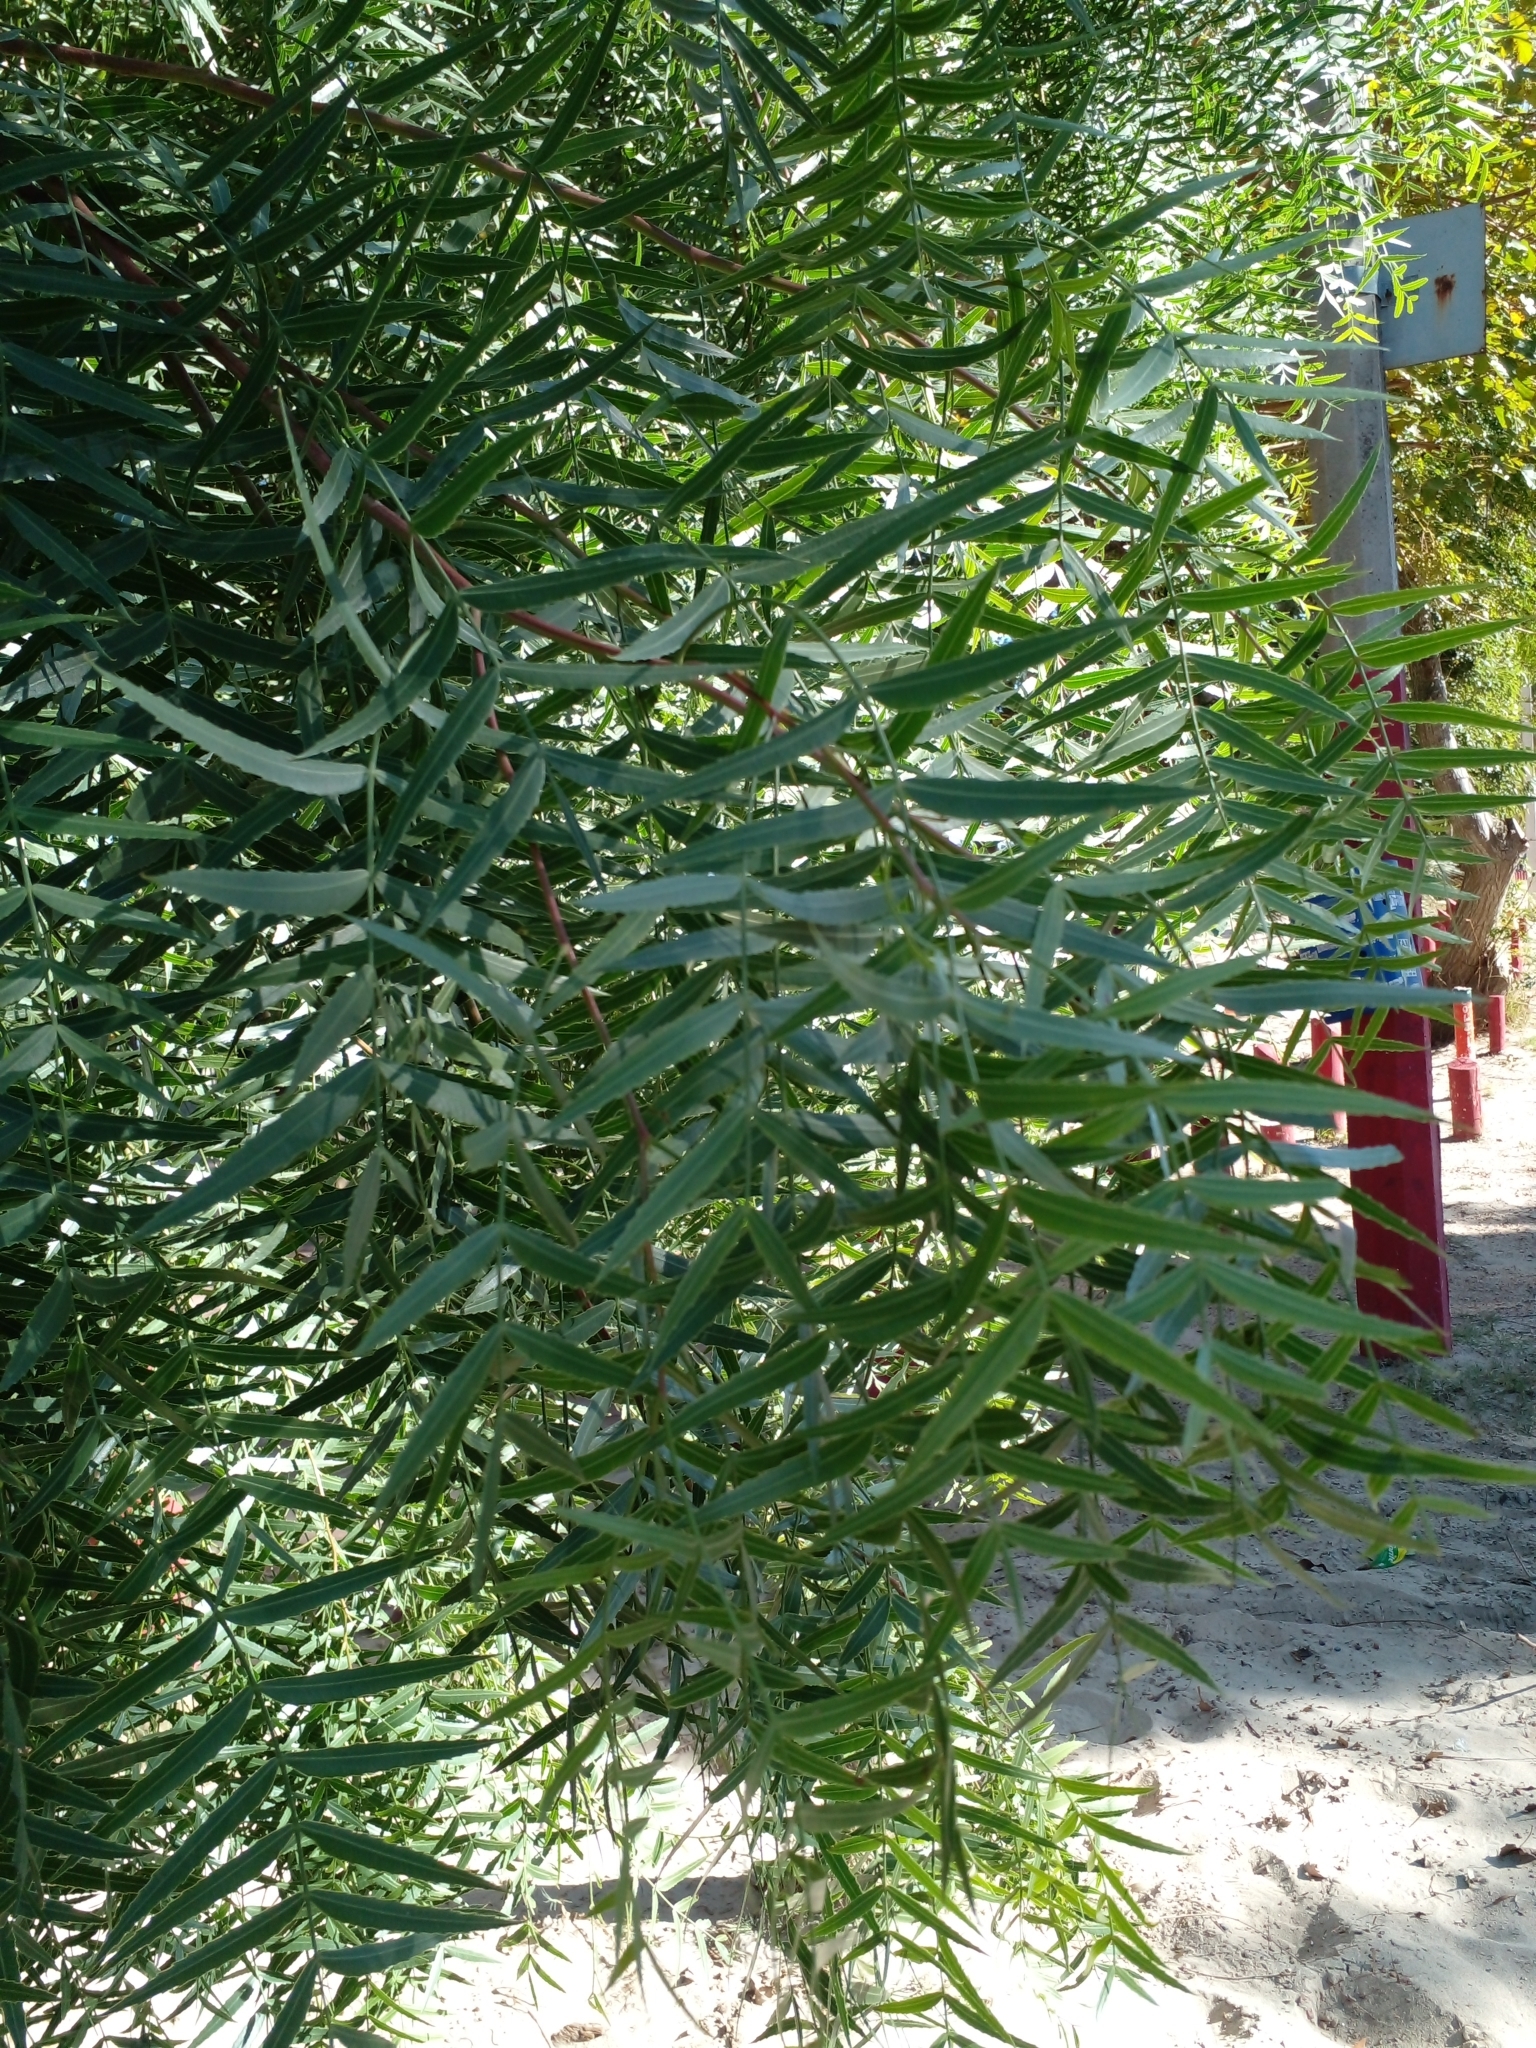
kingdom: Plantae
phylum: Tracheophyta
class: Magnoliopsida
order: Sapindales
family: Anacardiaceae
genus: Schinus
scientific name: Schinus molle
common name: Peruvian peppertree
